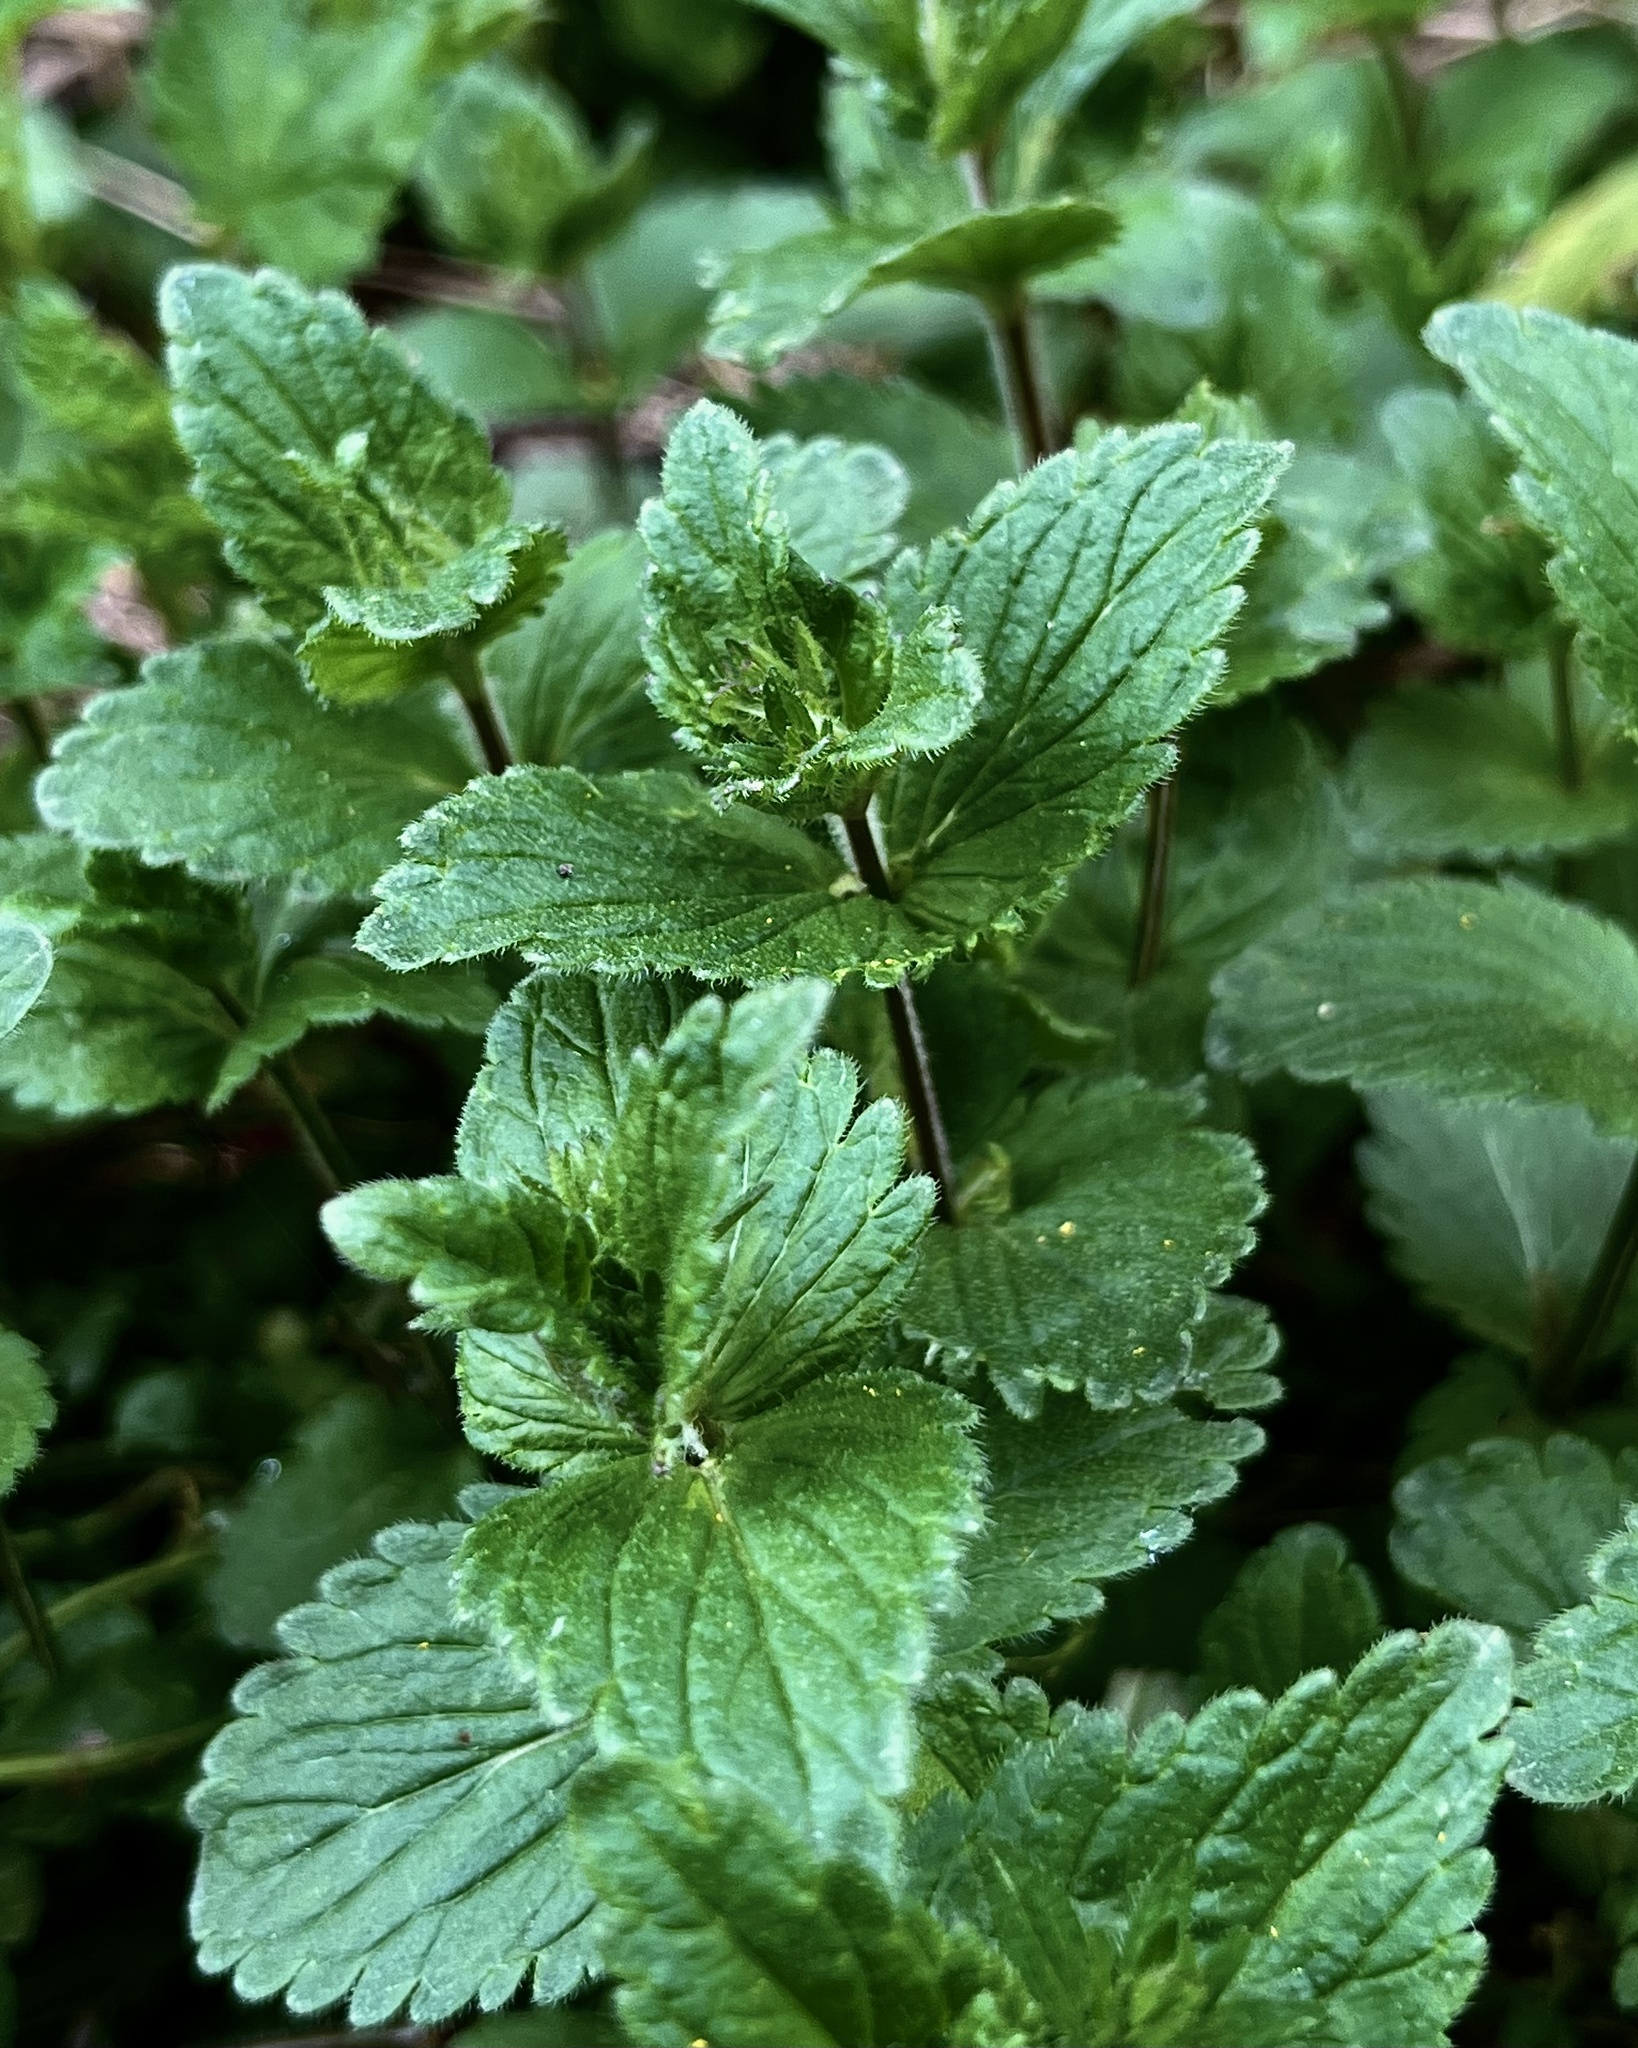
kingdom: Plantae
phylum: Tracheophyta
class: Magnoliopsida
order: Lamiales
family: Plantaginaceae
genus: Veronica
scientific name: Veronica chamaedrys
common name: Germander speedwell
